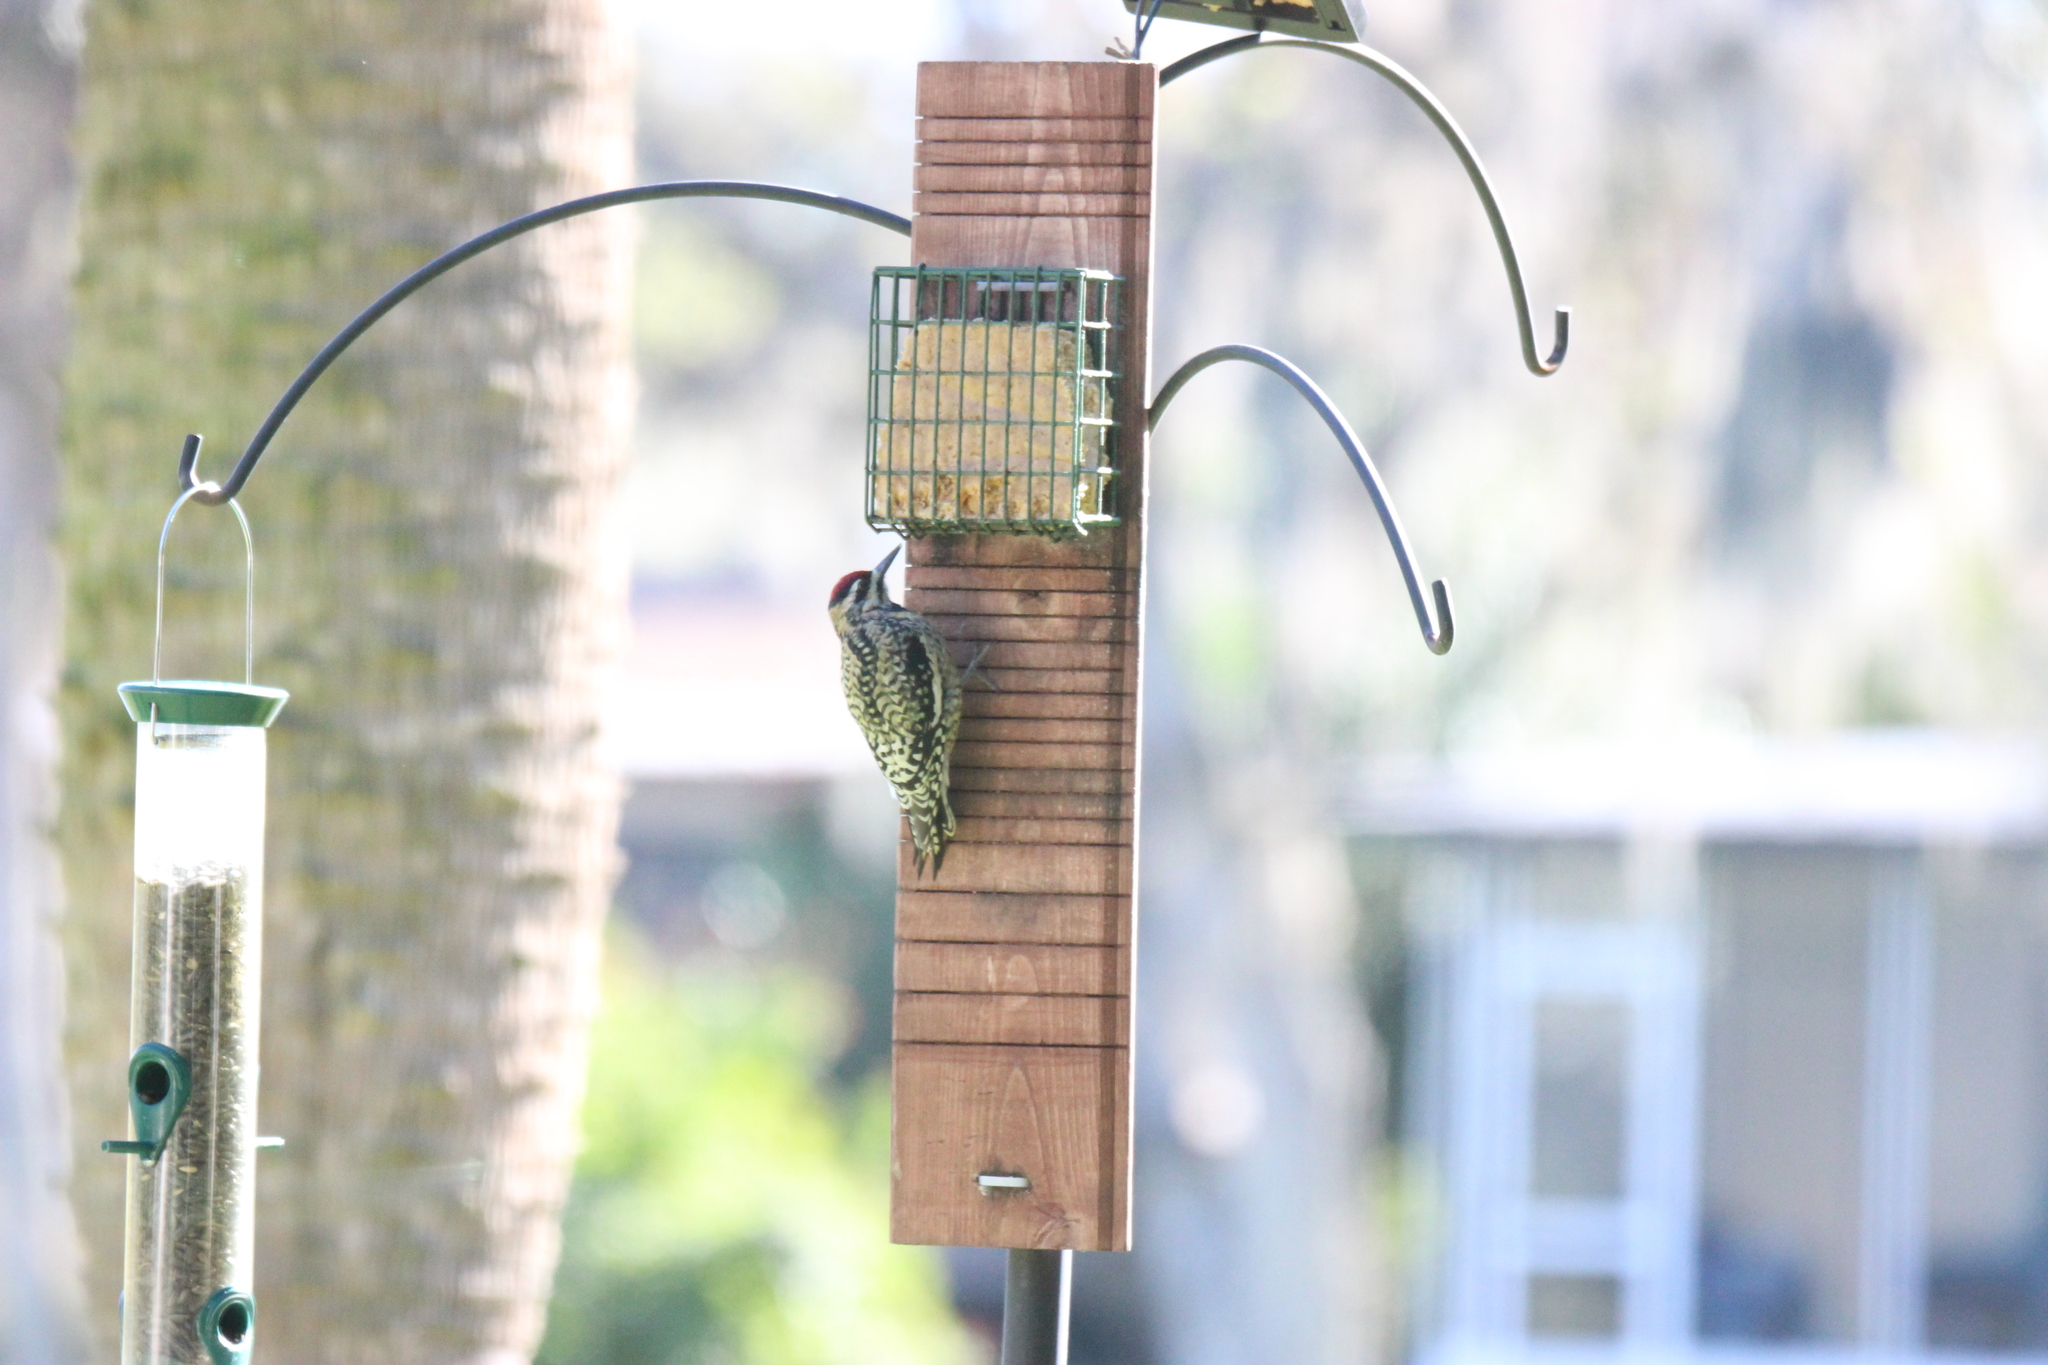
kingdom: Animalia
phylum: Chordata
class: Aves
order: Piciformes
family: Picidae
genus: Sphyrapicus
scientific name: Sphyrapicus varius
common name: Yellow-bellied sapsucker
